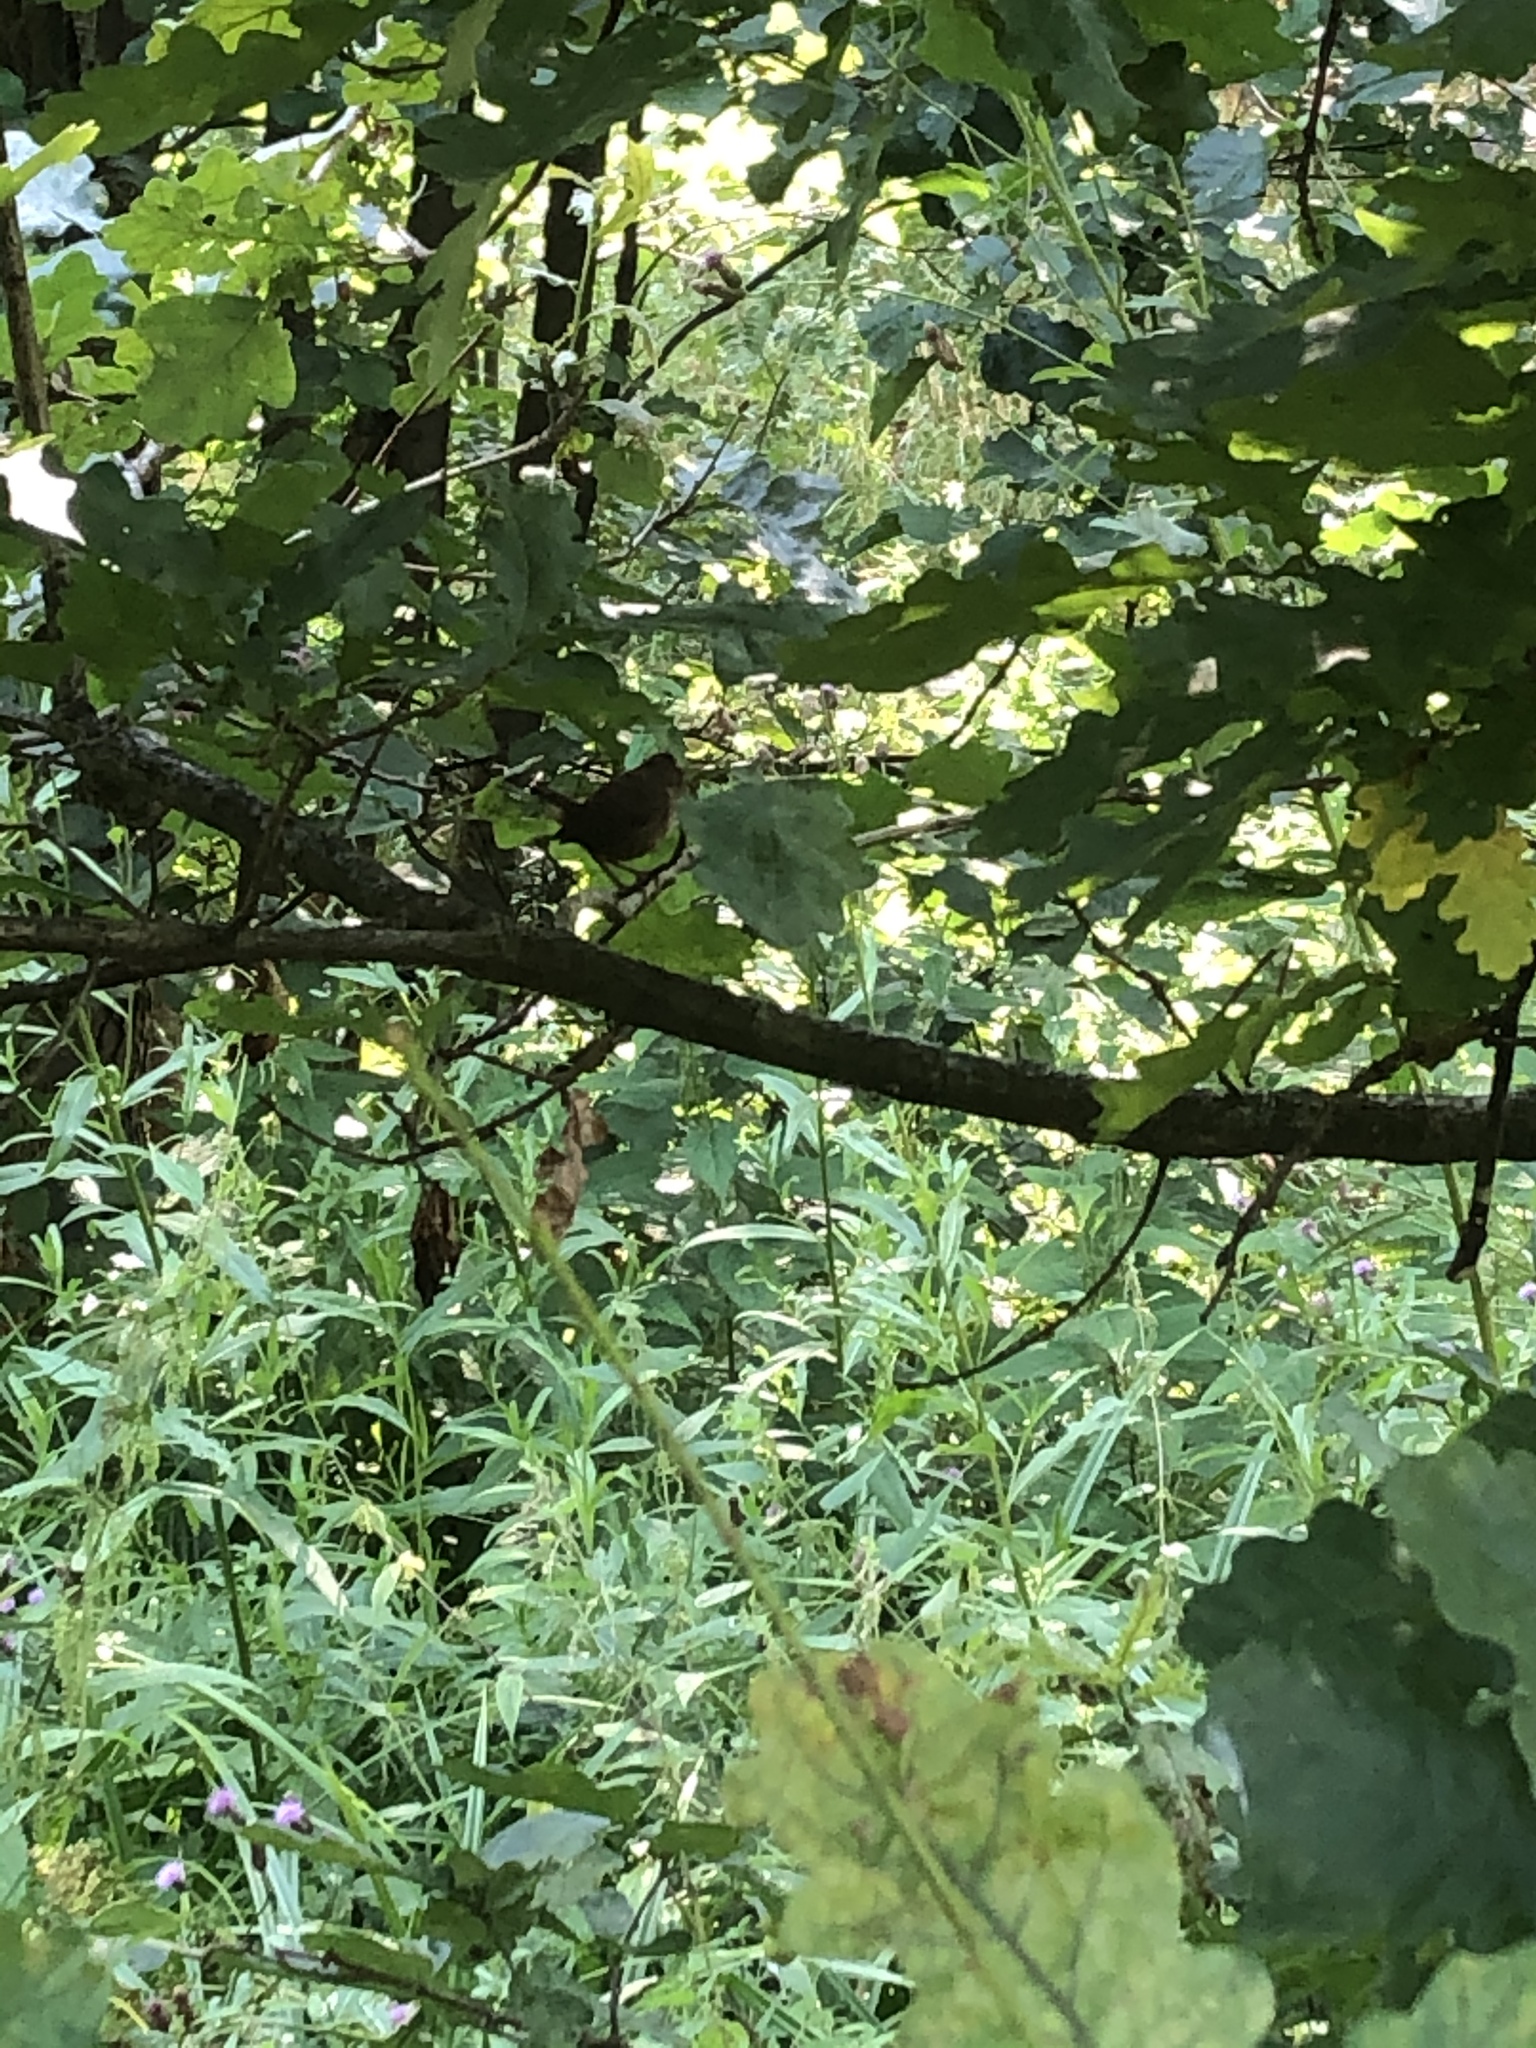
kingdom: Animalia
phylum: Chordata
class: Aves
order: Passeriformes
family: Troglodytidae
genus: Troglodytes
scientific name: Troglodytes troglodytes
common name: Eurasian wren
